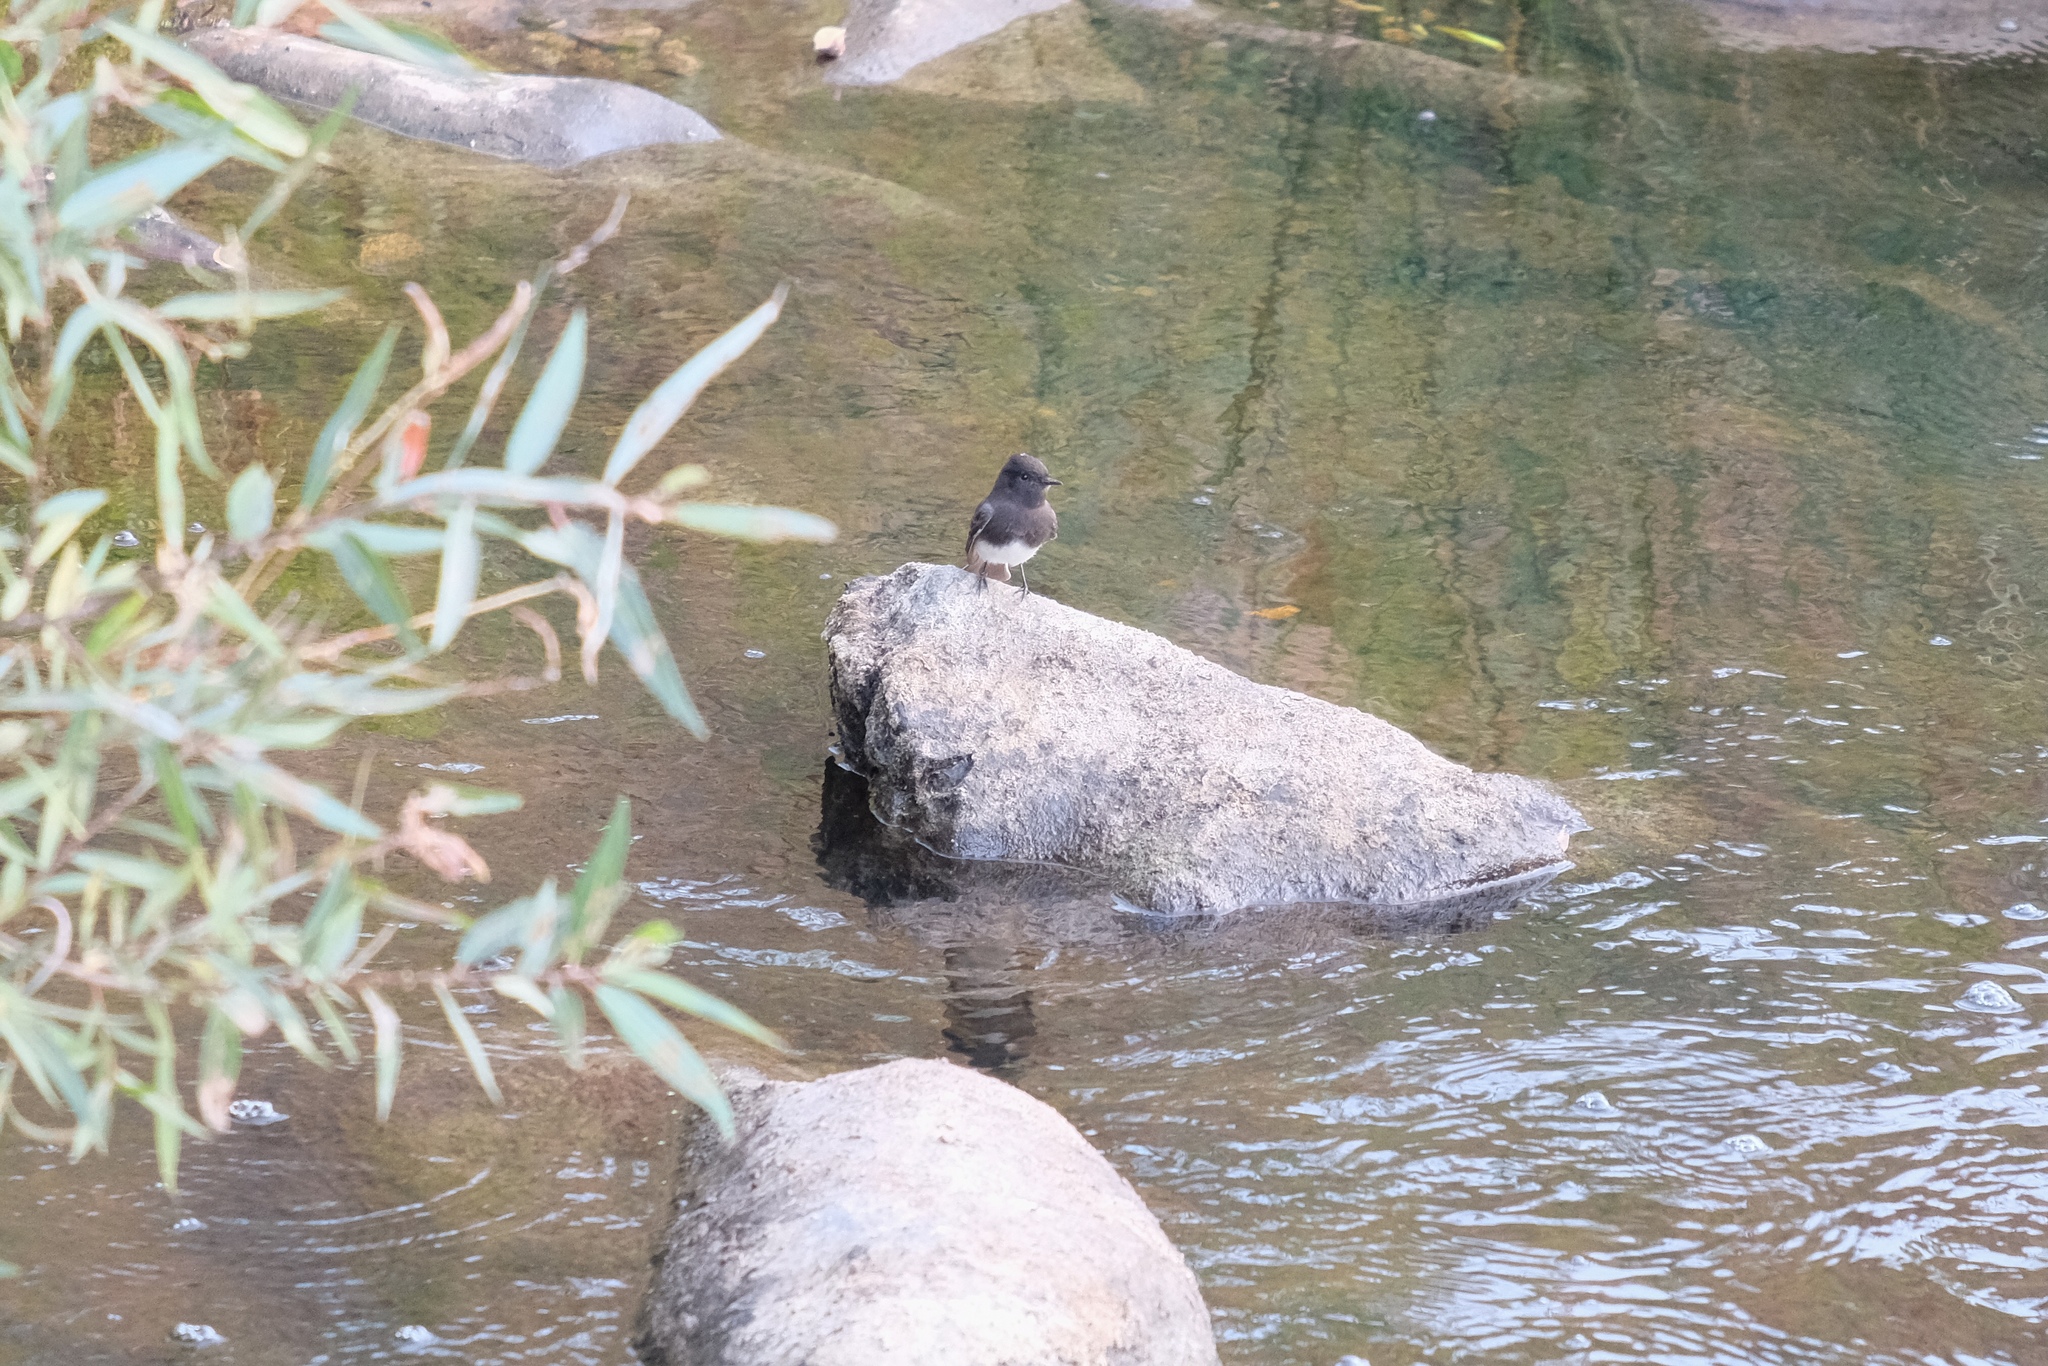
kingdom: Animalia
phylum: Chordata
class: Aves
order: Passeriformes
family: Tyrannidae
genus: Sayornis
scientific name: Sayornis nigricans
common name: Black phoebe
